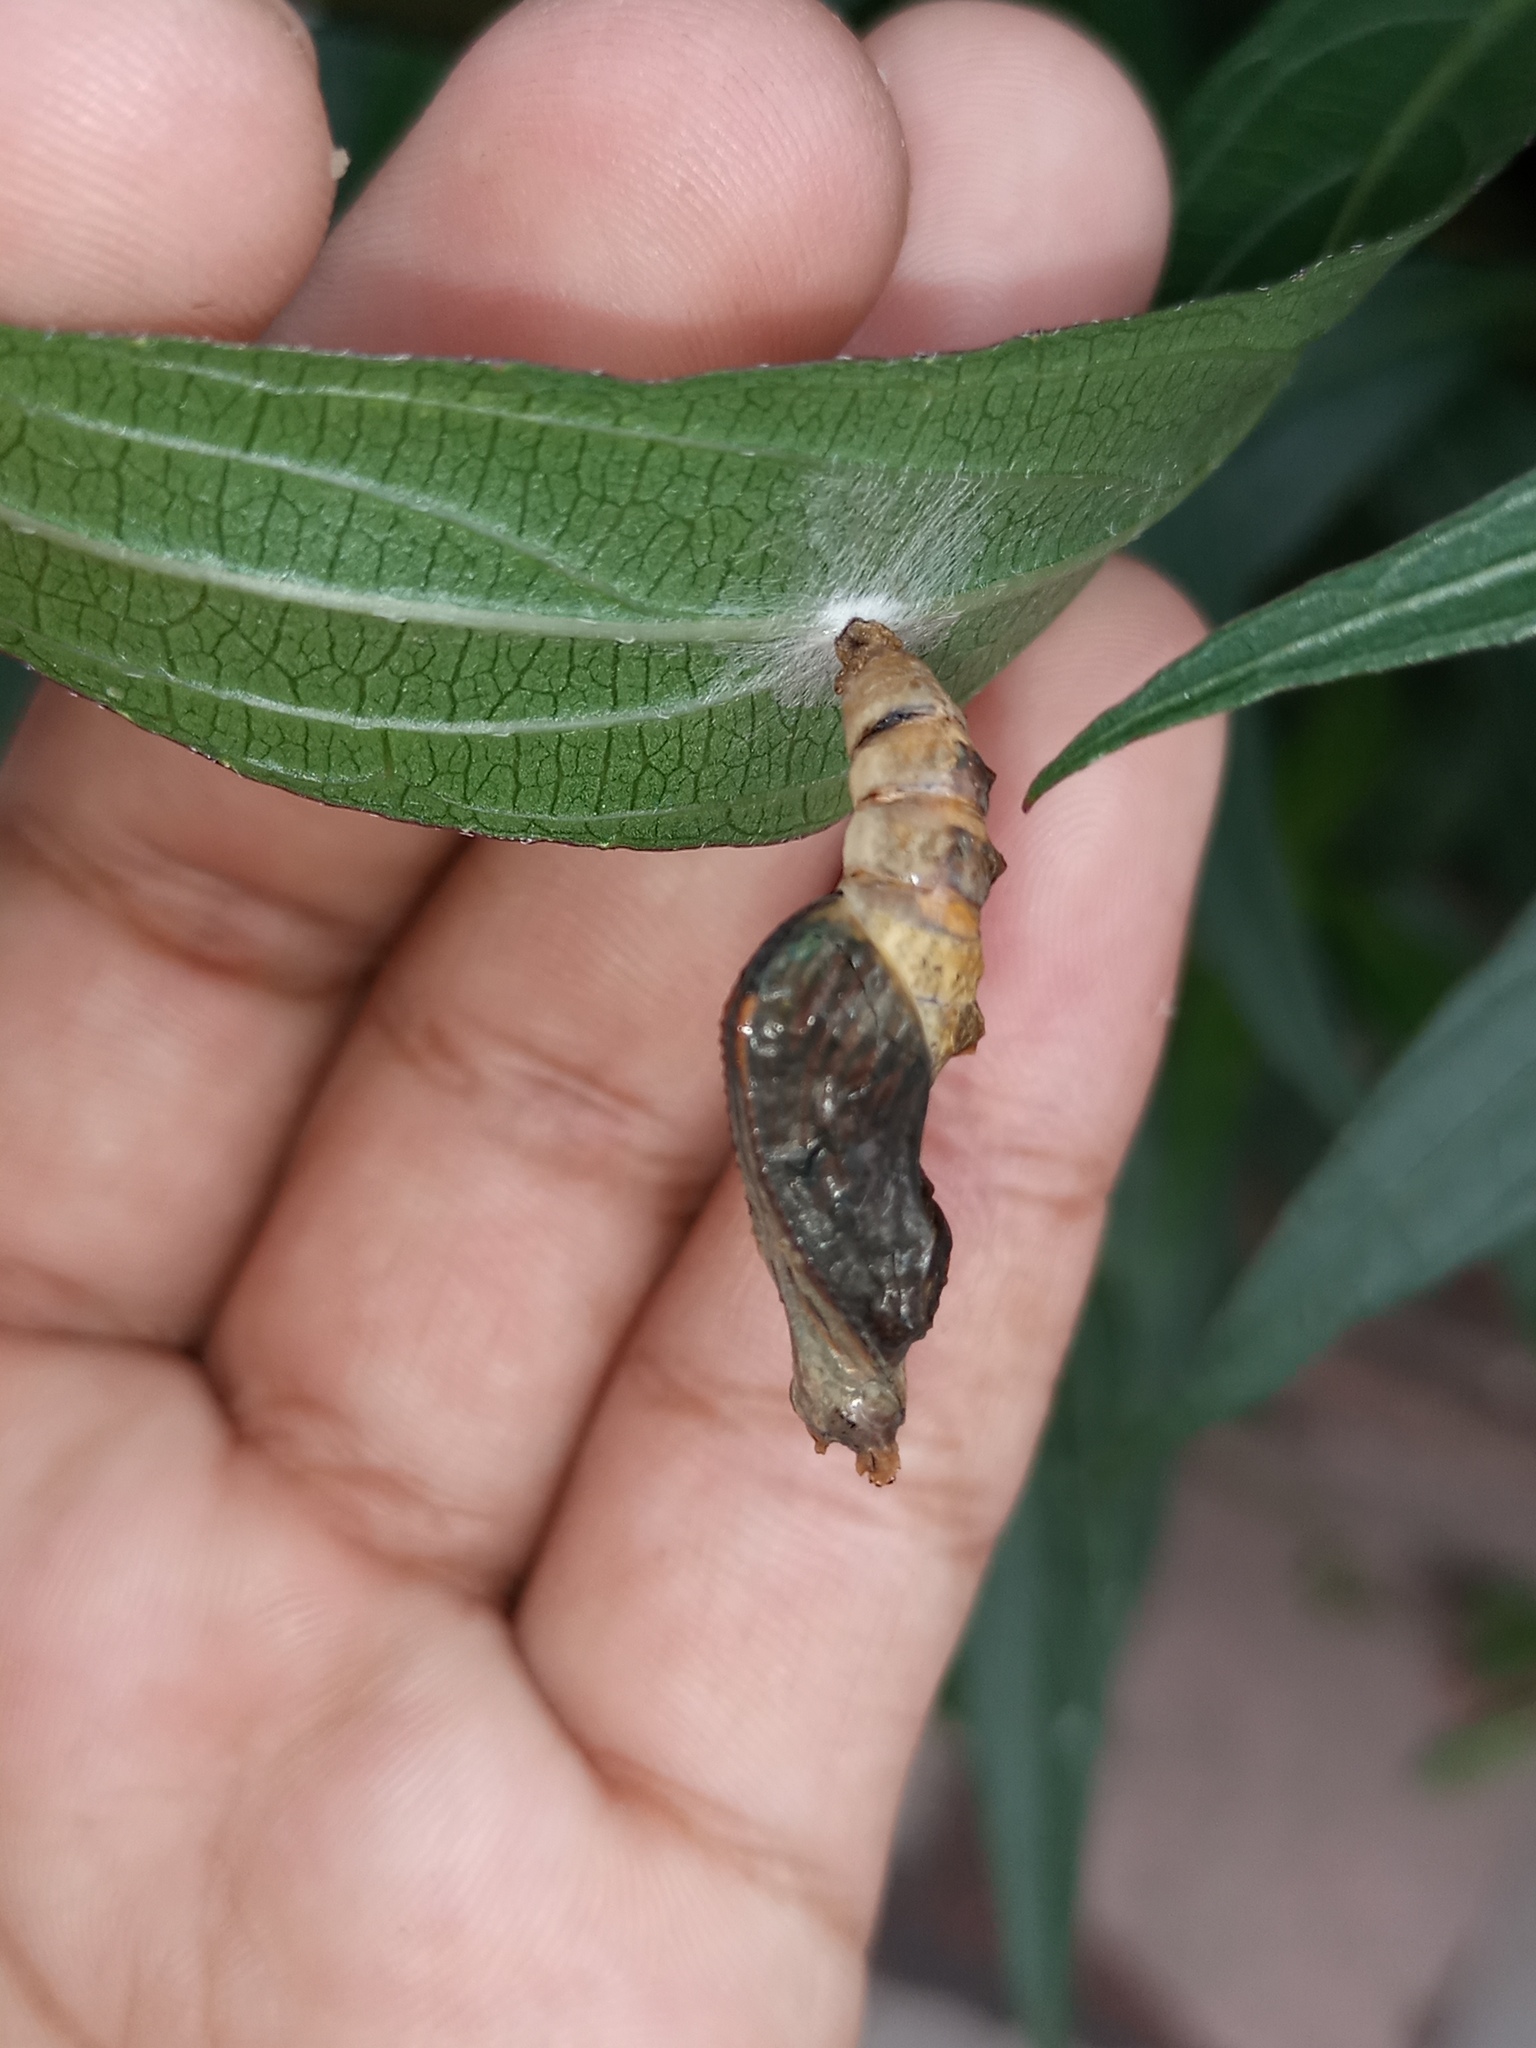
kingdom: Animalia
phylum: Arthropoda
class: Insecta
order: Lepidoptera
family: Nymphalidae
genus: Dione
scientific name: Dione vanillae
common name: Gulf fritillary
